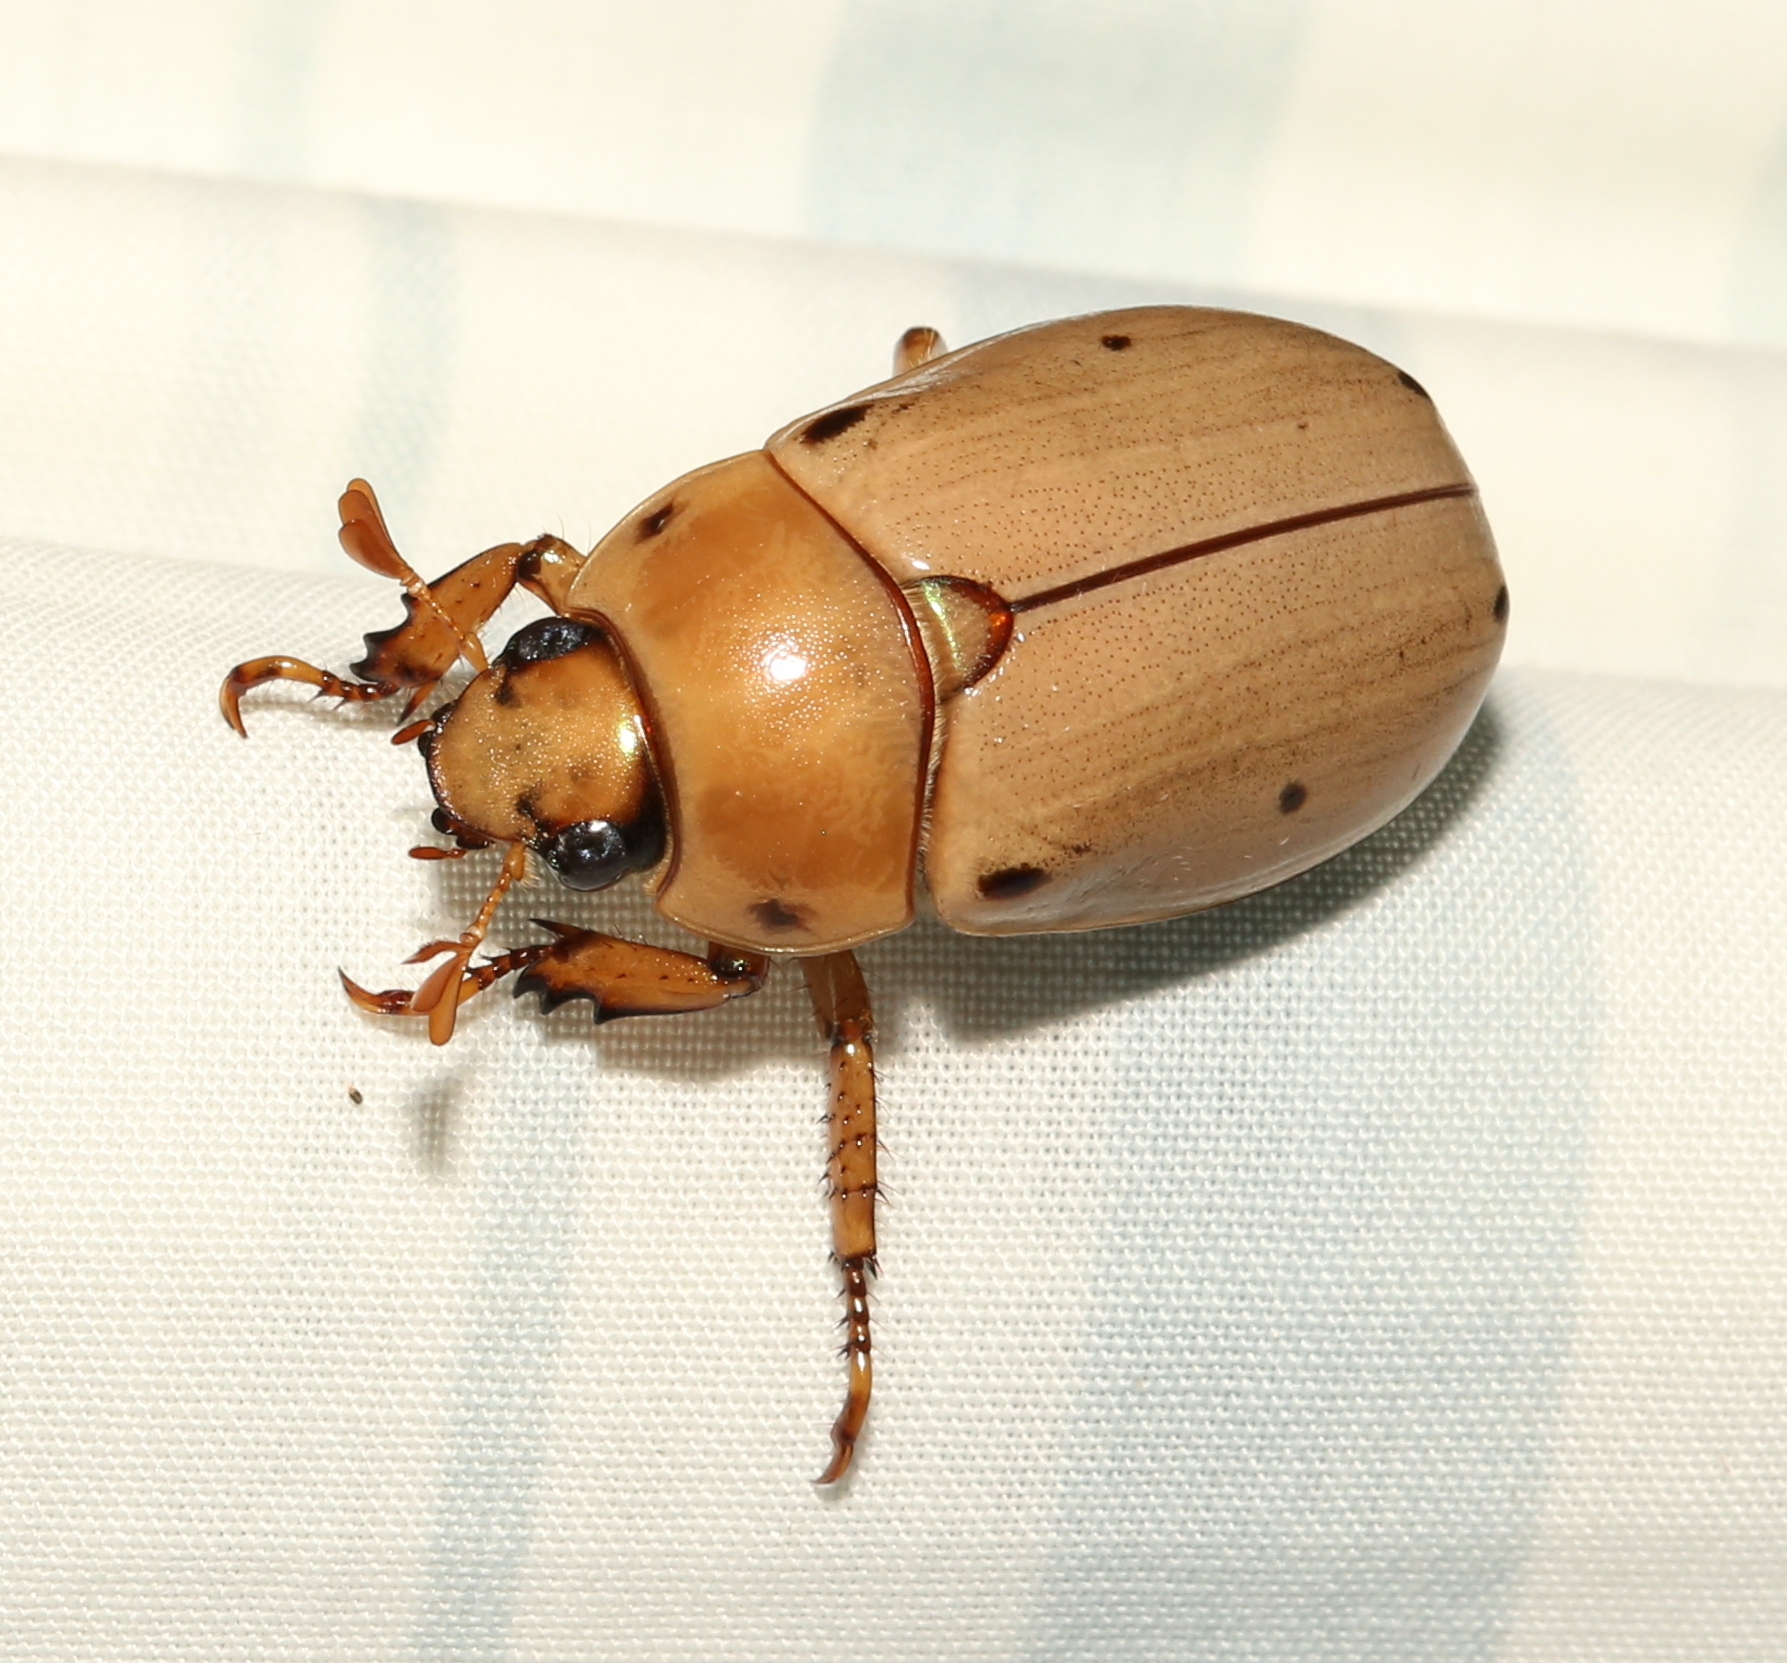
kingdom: Animalia
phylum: Arthropoda
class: Insecta
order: Coleoptera
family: Scarabaeidae
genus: Pelidnota
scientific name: Pelidnota punctata
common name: Grapevine beetle
